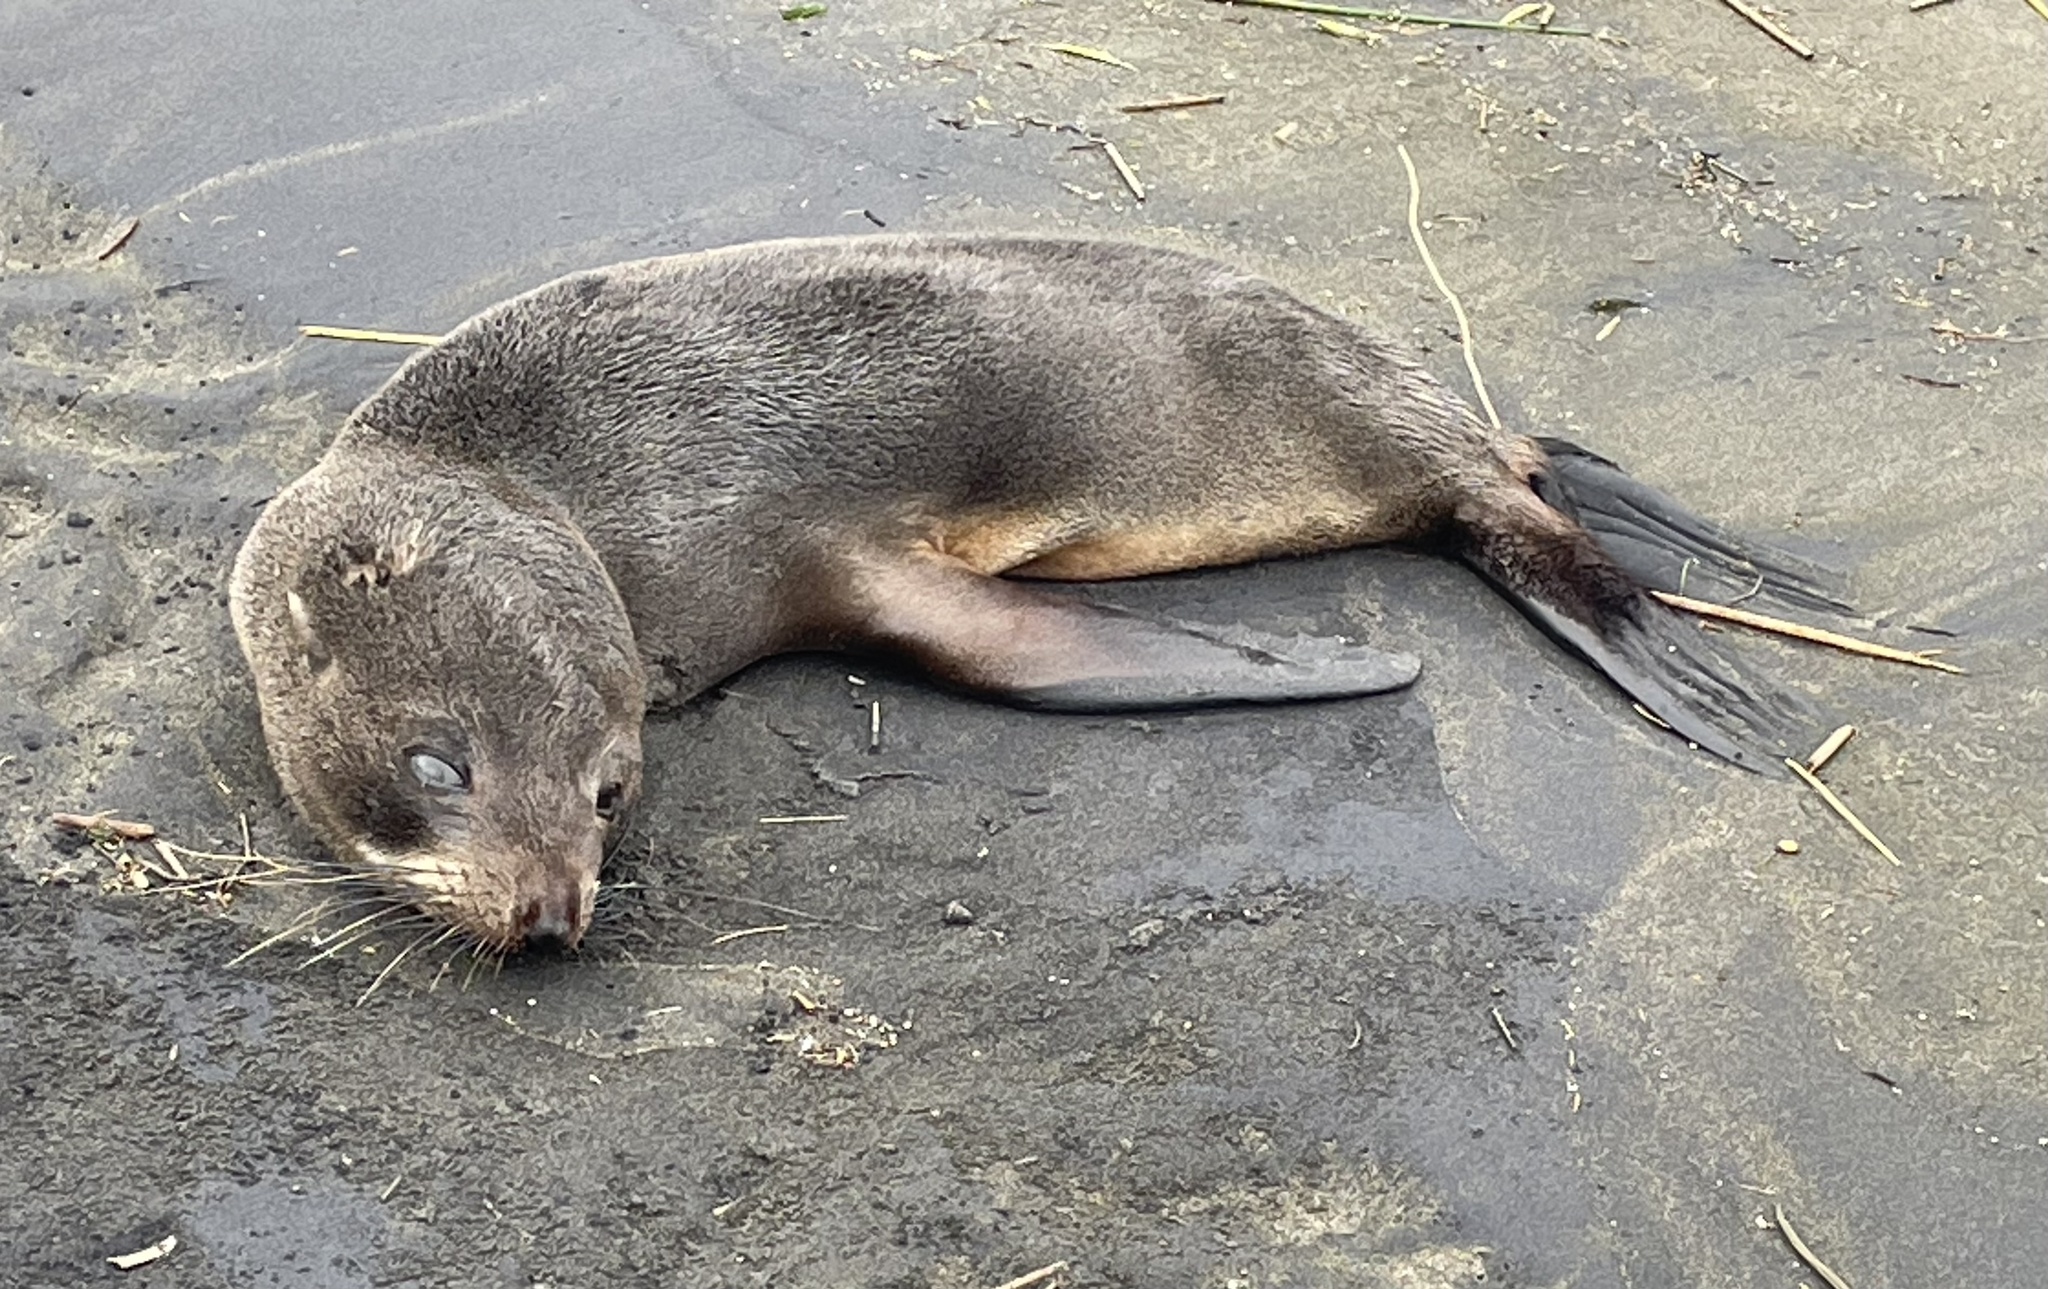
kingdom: Animalia
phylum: Chordata
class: Mammalia
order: Carnivora
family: Otariidae
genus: Arctocephalus
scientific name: Arctocephalus forsteri
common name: New zealand fur seal
